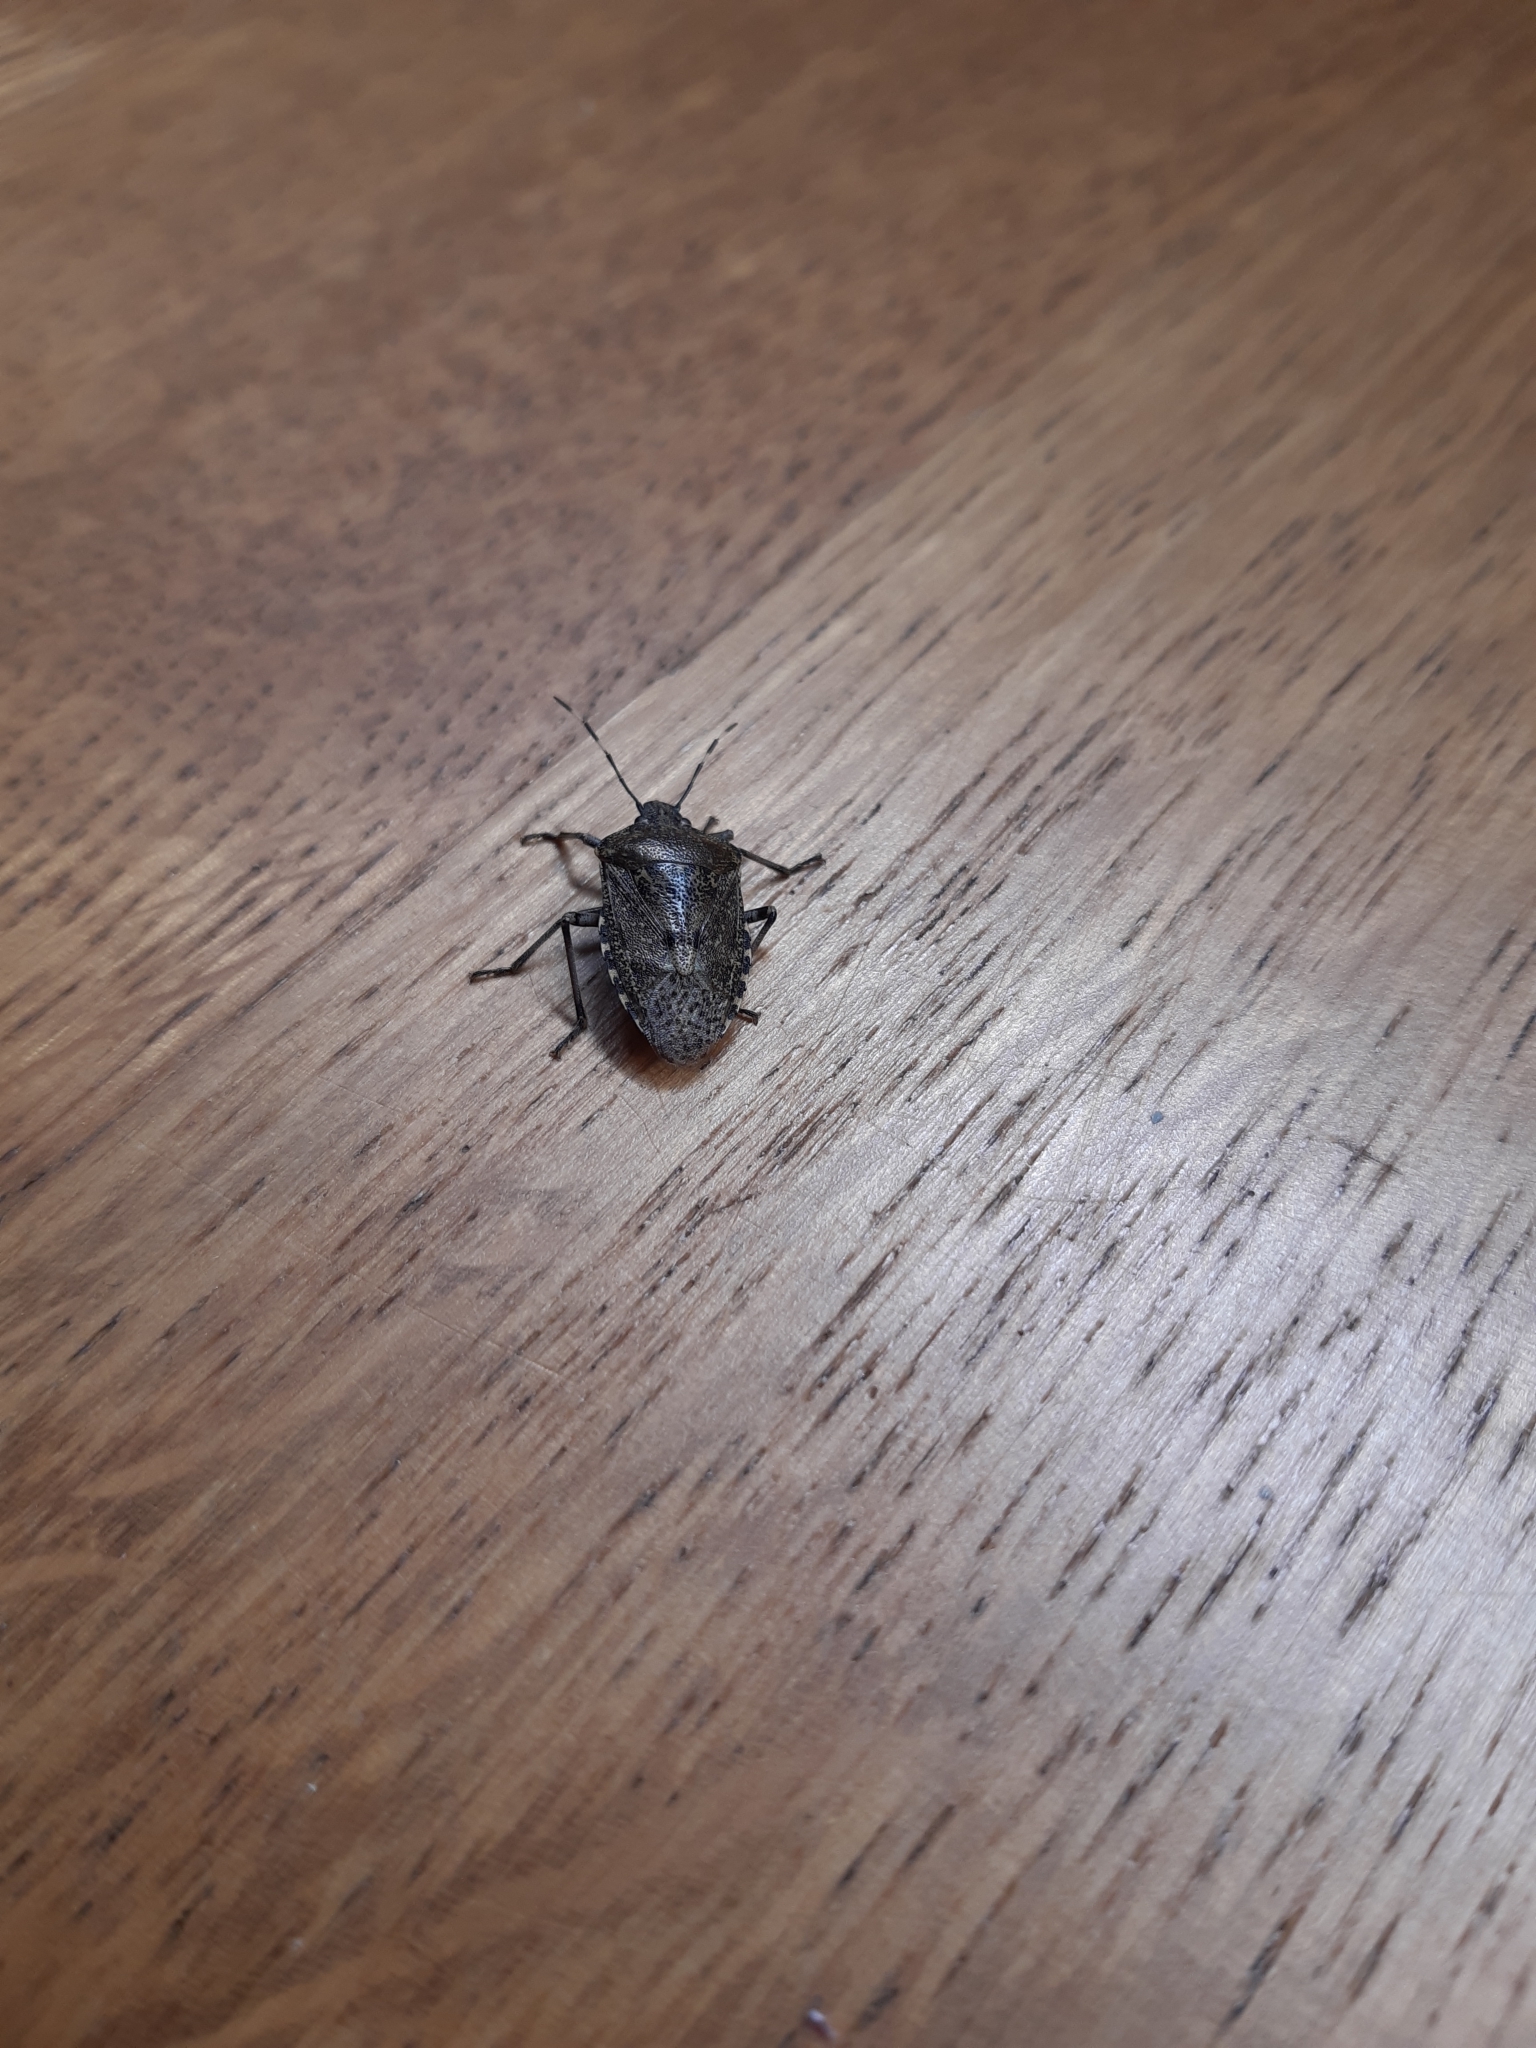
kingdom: Animalia
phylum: Arthropoda
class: Insecta
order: Hemiptera
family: Pentatomidae
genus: Rhaphigaster
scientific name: Rhaphigaster nebulosa
